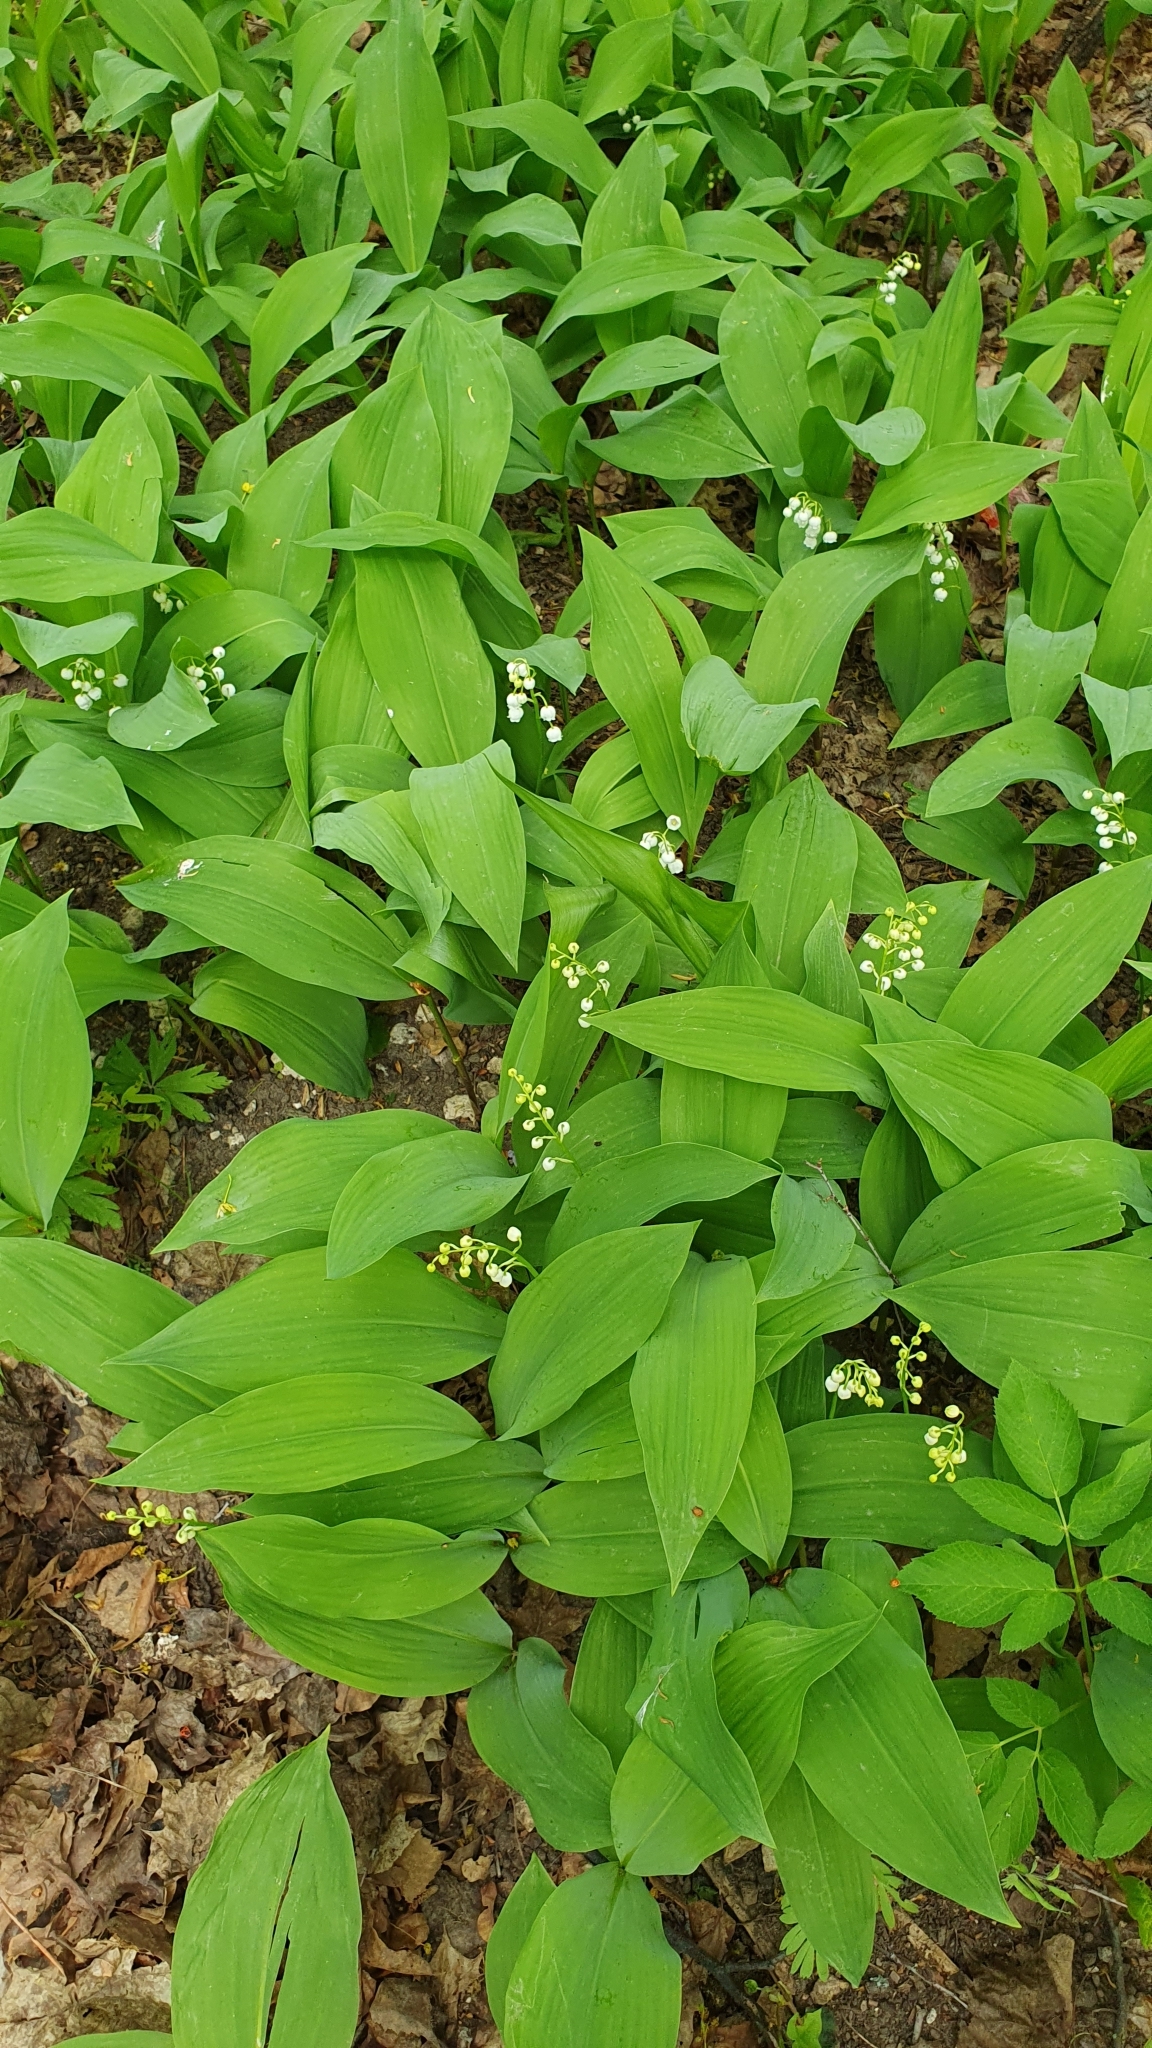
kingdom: Plantae
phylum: Tracheophyta
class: Liliopsida
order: Asparagales
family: Asparagaceae
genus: Convallaria
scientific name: Convallaria majalis
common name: Lily-of-the-valley
